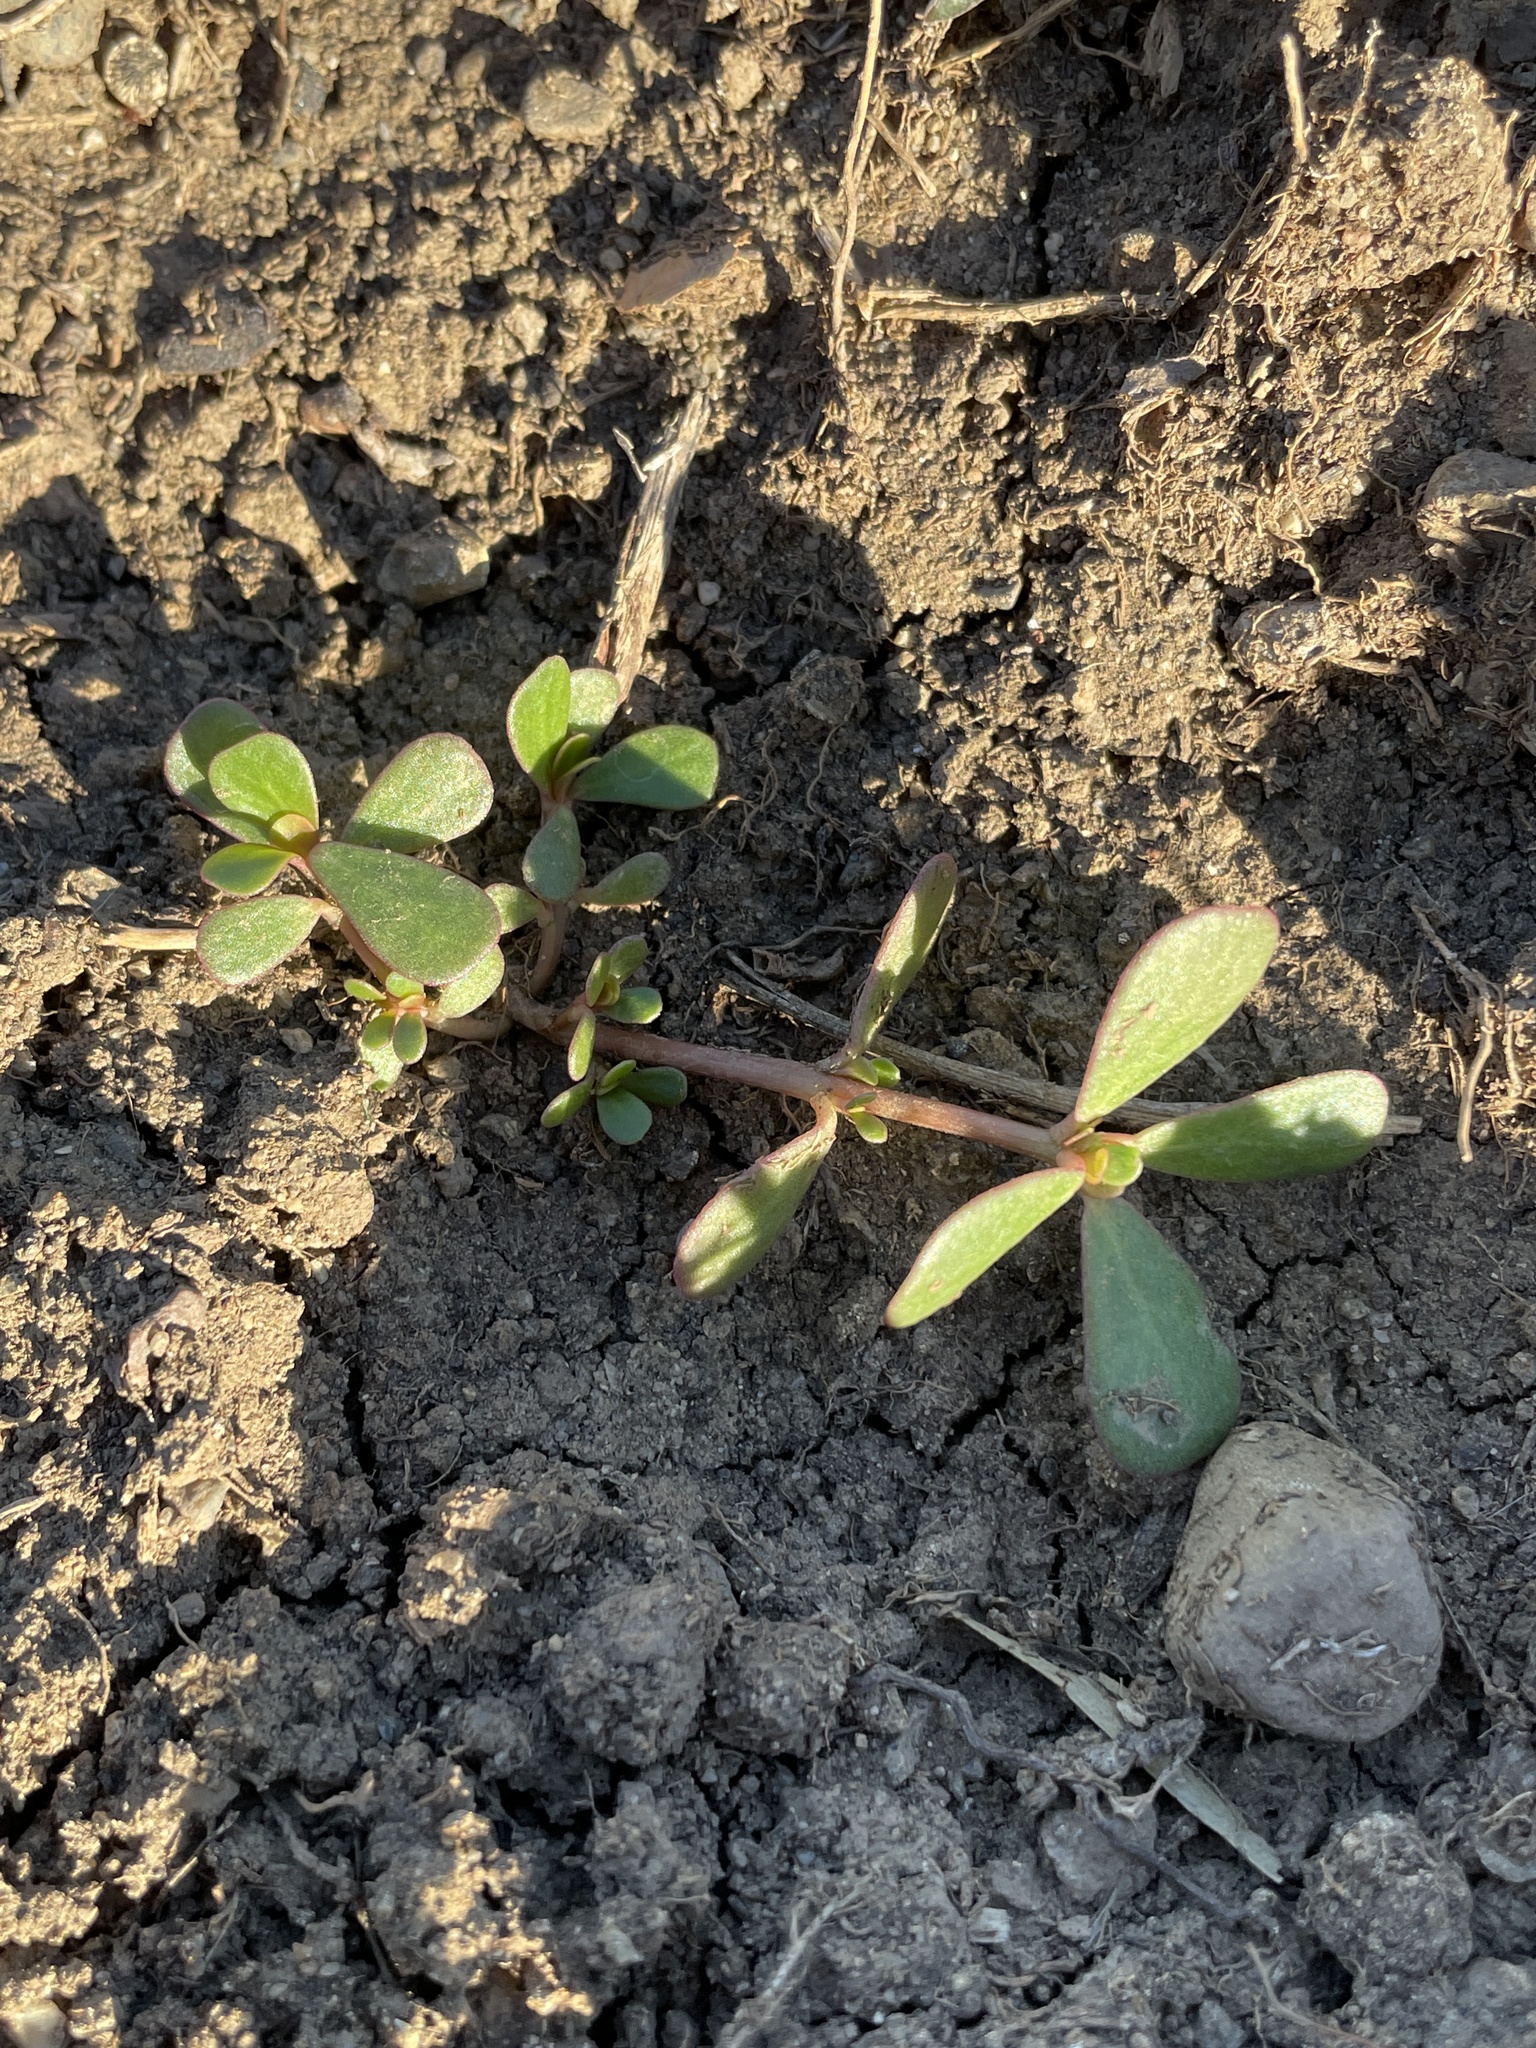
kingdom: Plantae
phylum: Tracheophyta
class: Magnoliopsida
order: Caryophyllales
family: Portulacaceae
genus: Portulaca
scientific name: Portulaca oleracea
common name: Common purslane
